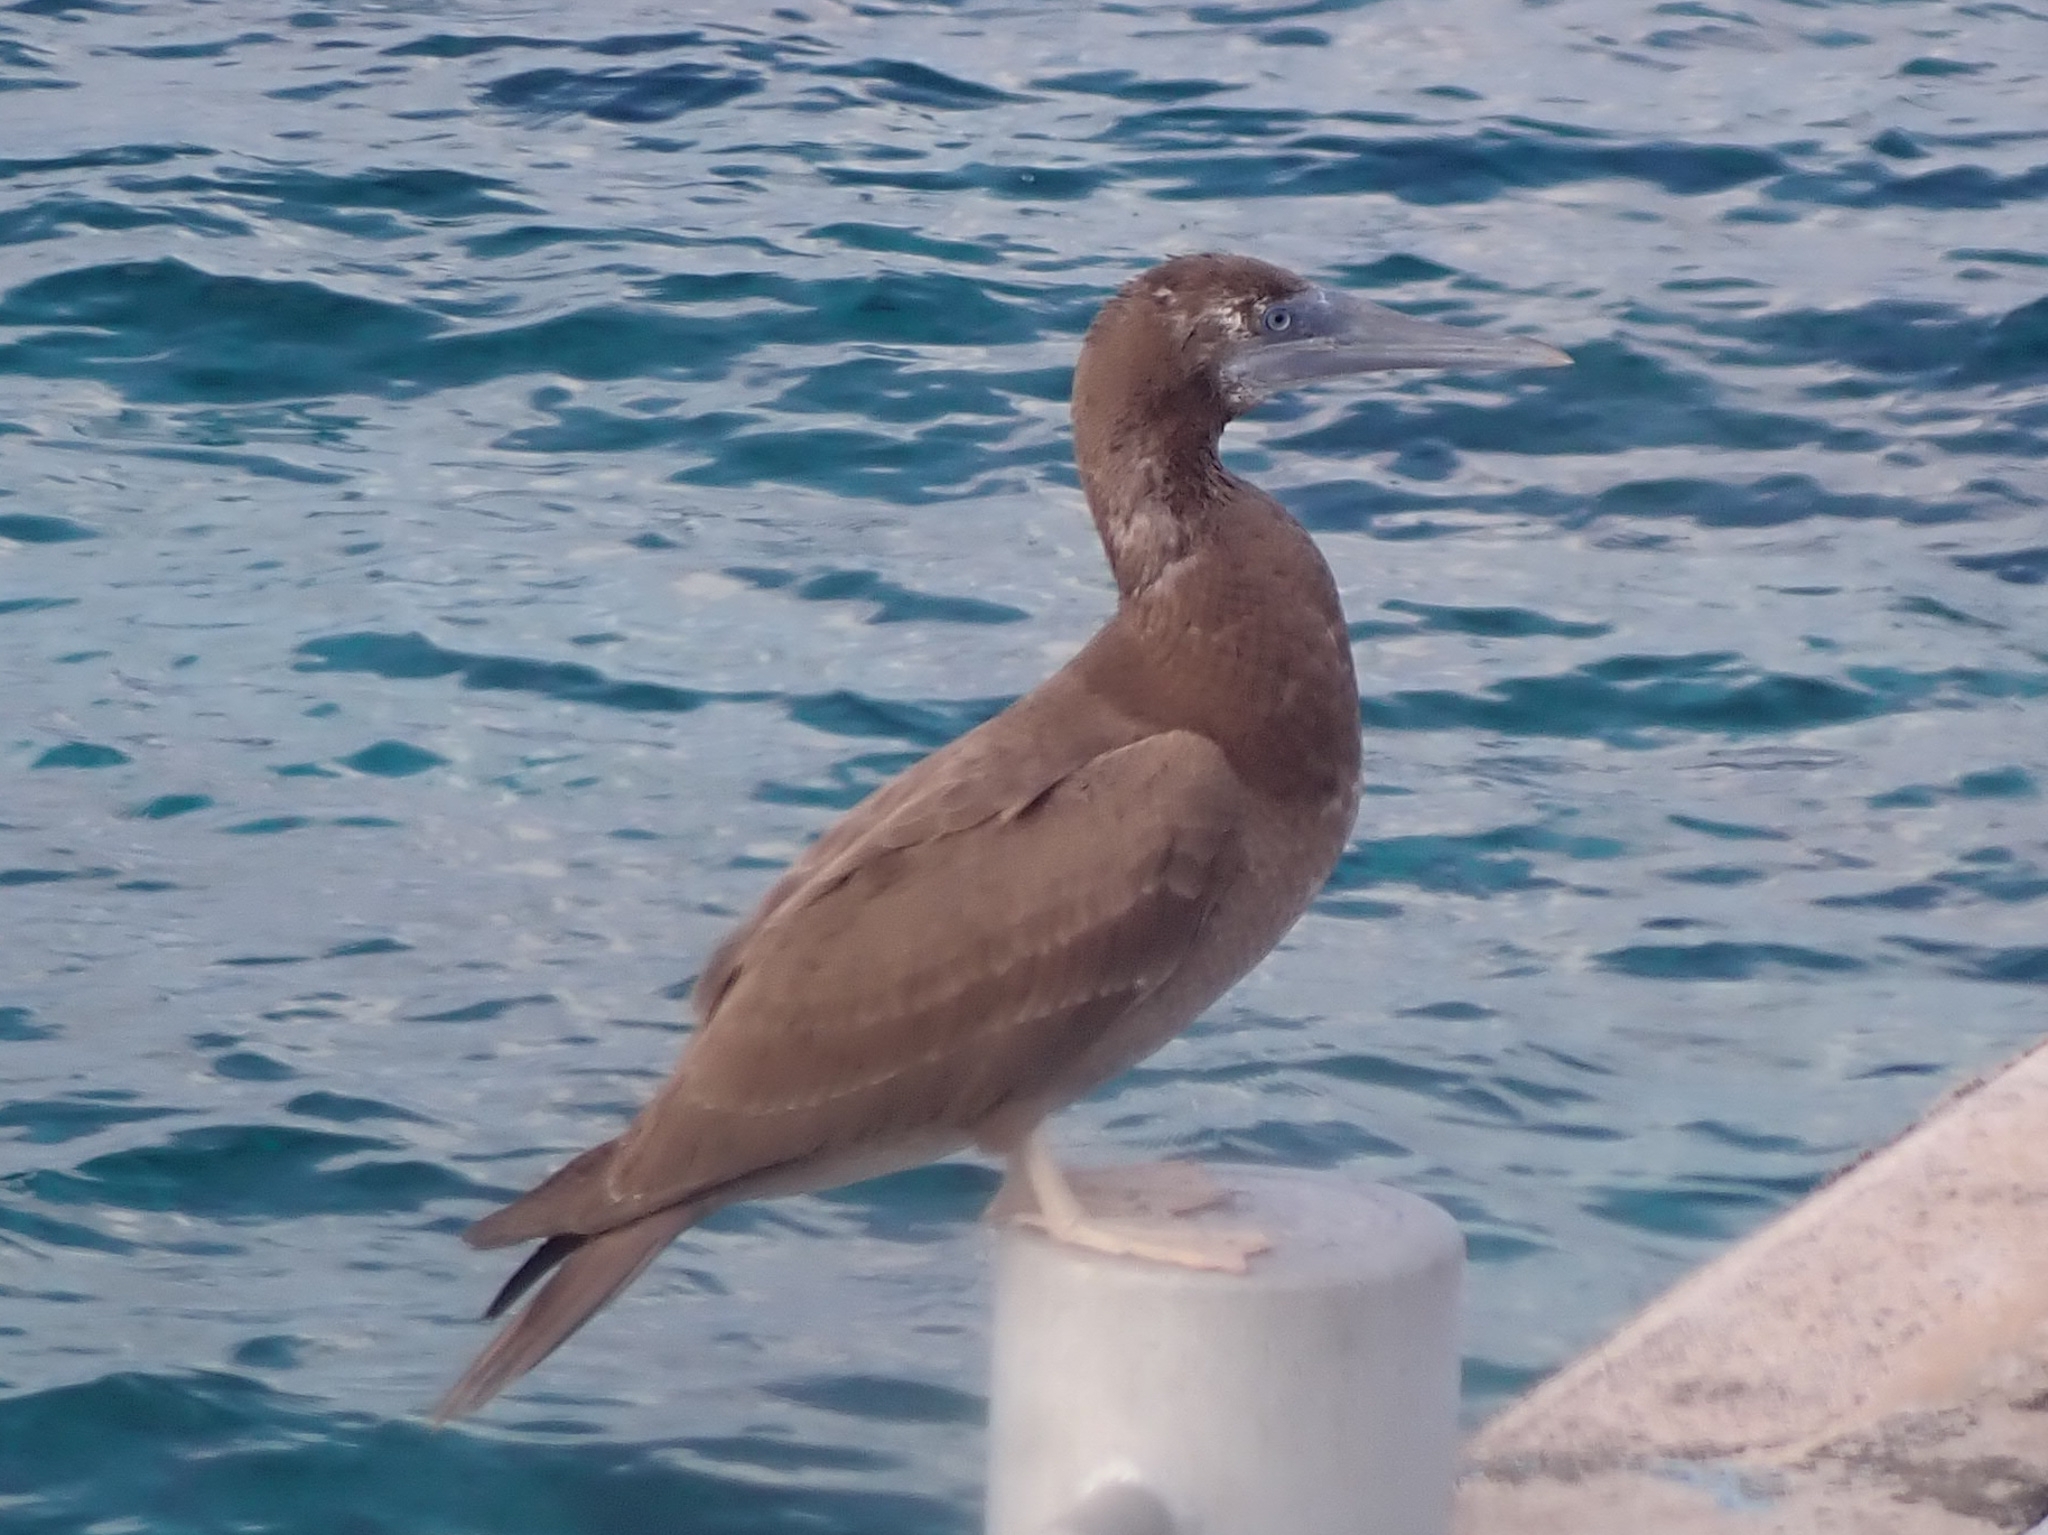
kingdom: Animalia
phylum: Chordata
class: Aves
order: Suliformes
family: Sulidae
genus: Sula
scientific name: Sula leucogaster
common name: Brown booby
